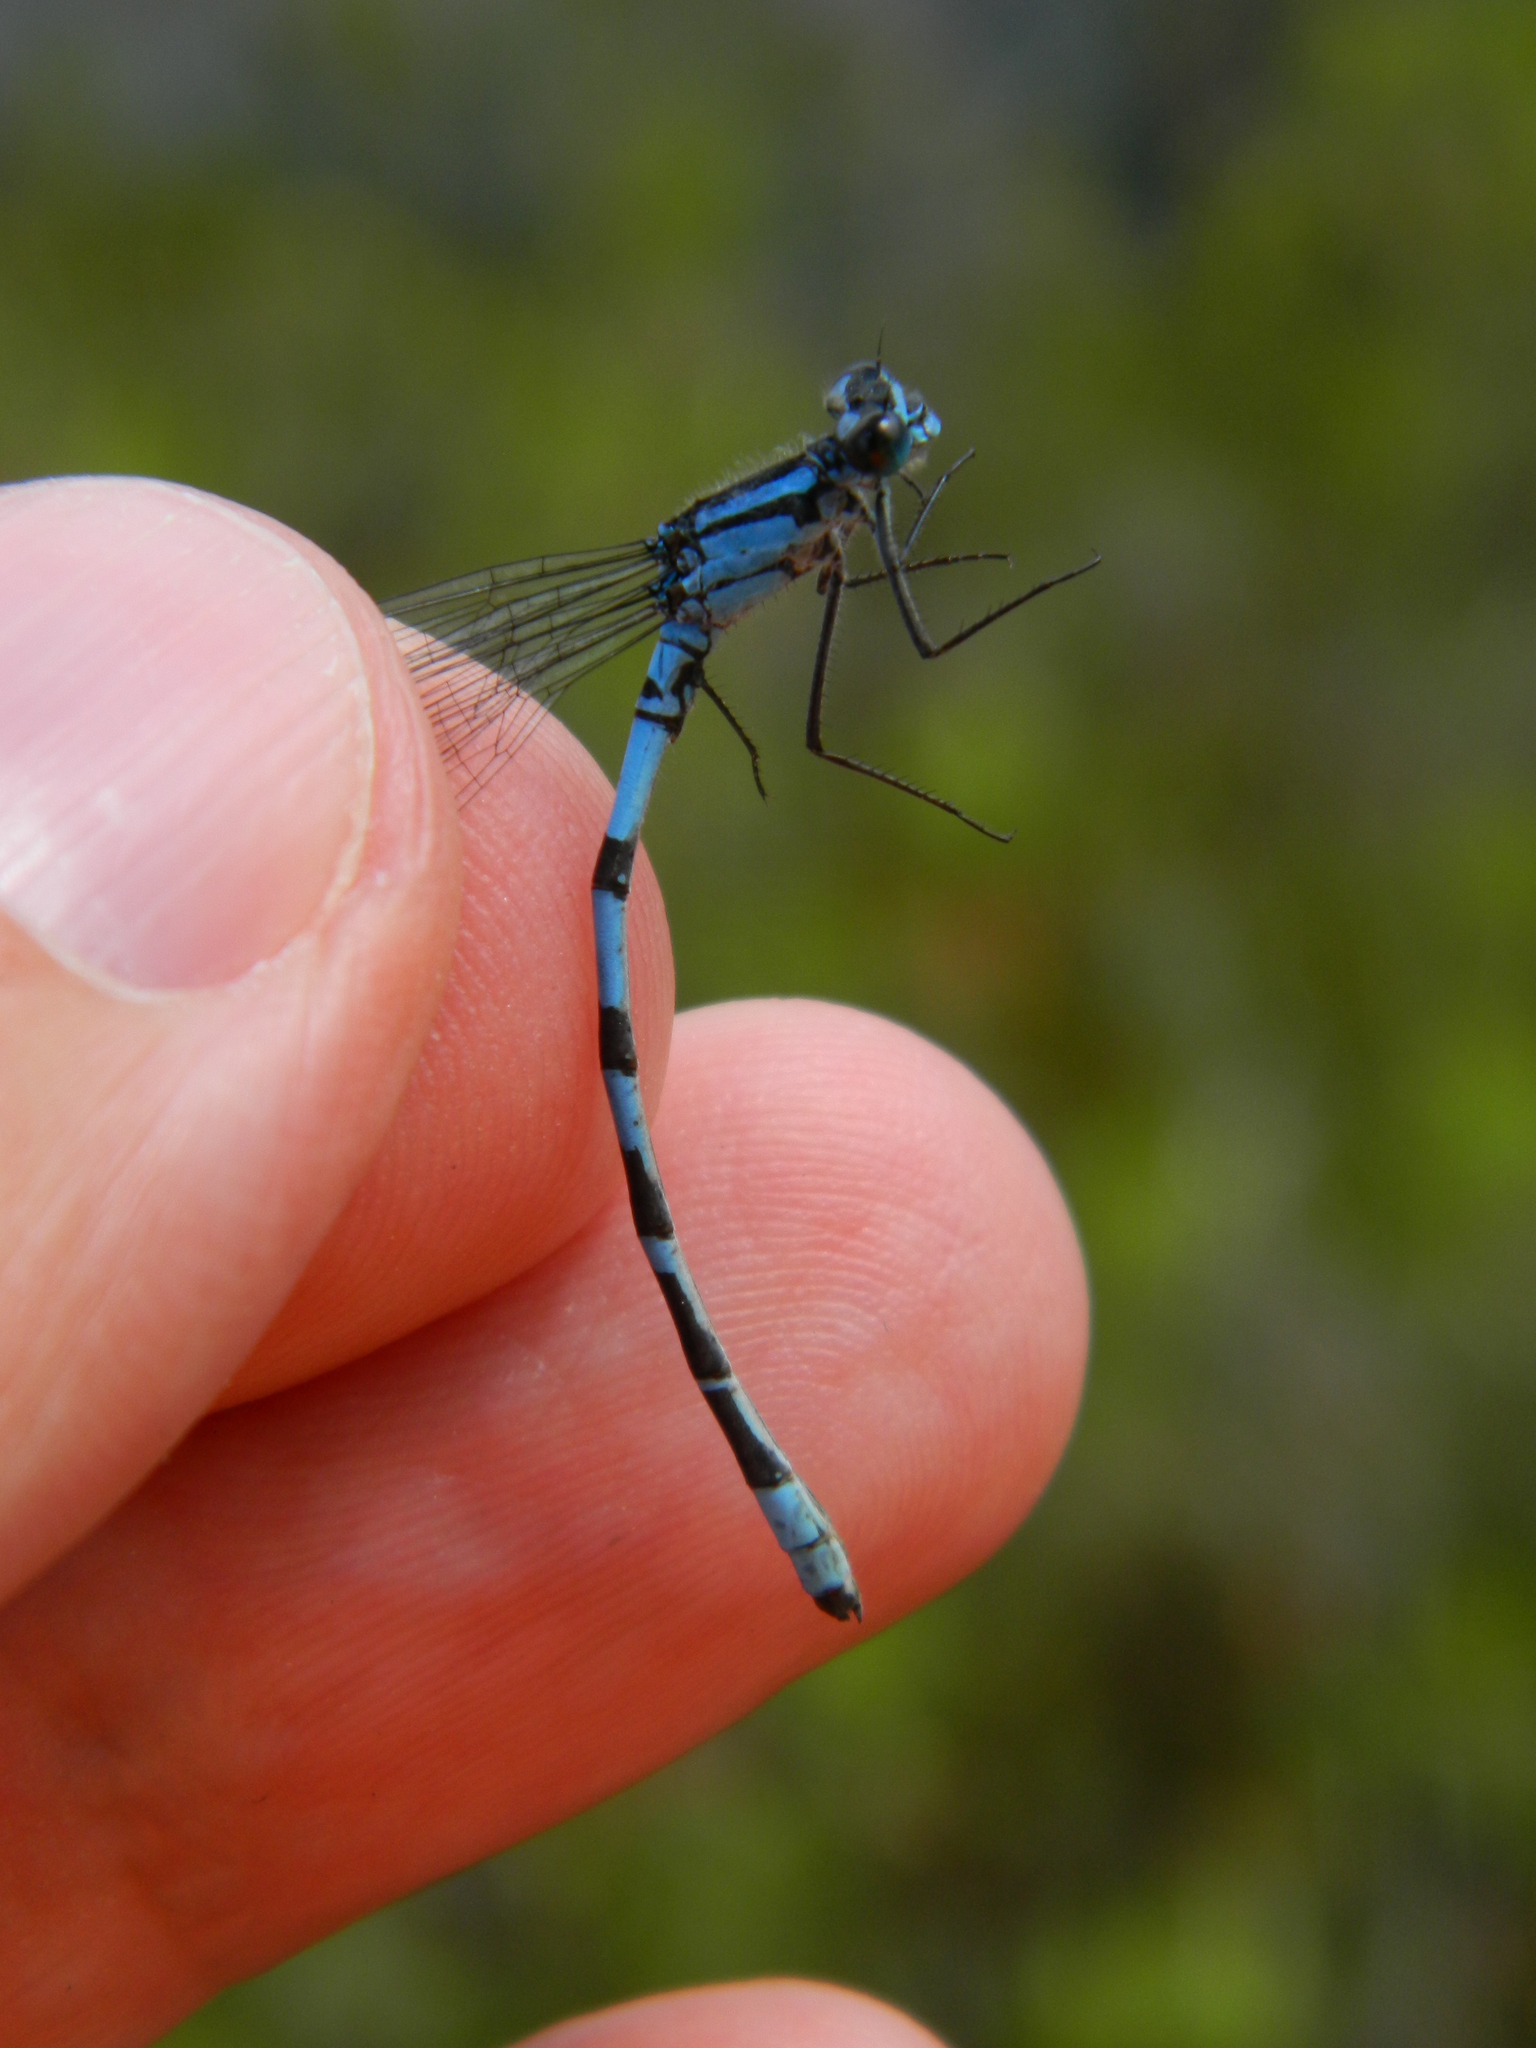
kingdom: Animalia
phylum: Arthropoda
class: Insecta
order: Odonata
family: Coenagrionidae
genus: Enallagma
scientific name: Enallagma annexum
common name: Northern bluet
